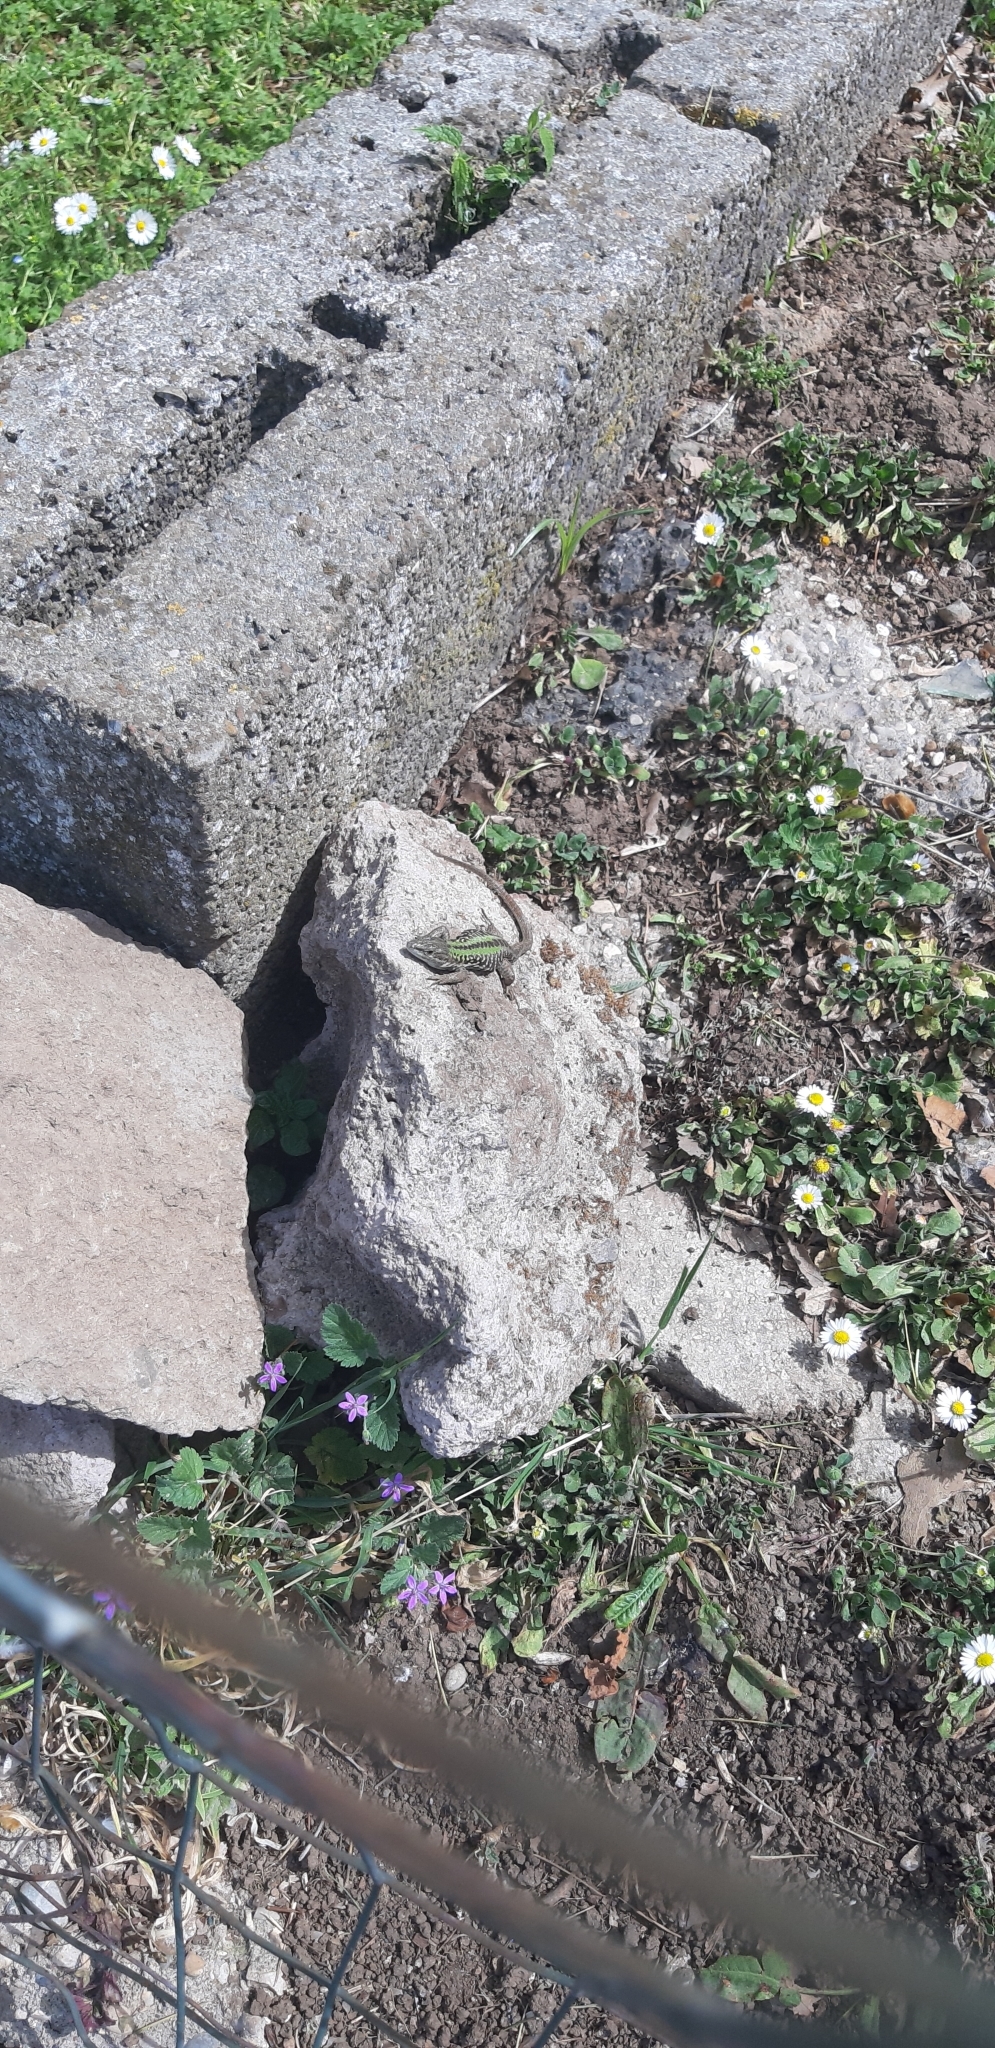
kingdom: Animalia
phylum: Chordata
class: Squamata
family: Lacertidae
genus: Podarcis
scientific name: Podarcis siculus
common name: Italian wall lizard
